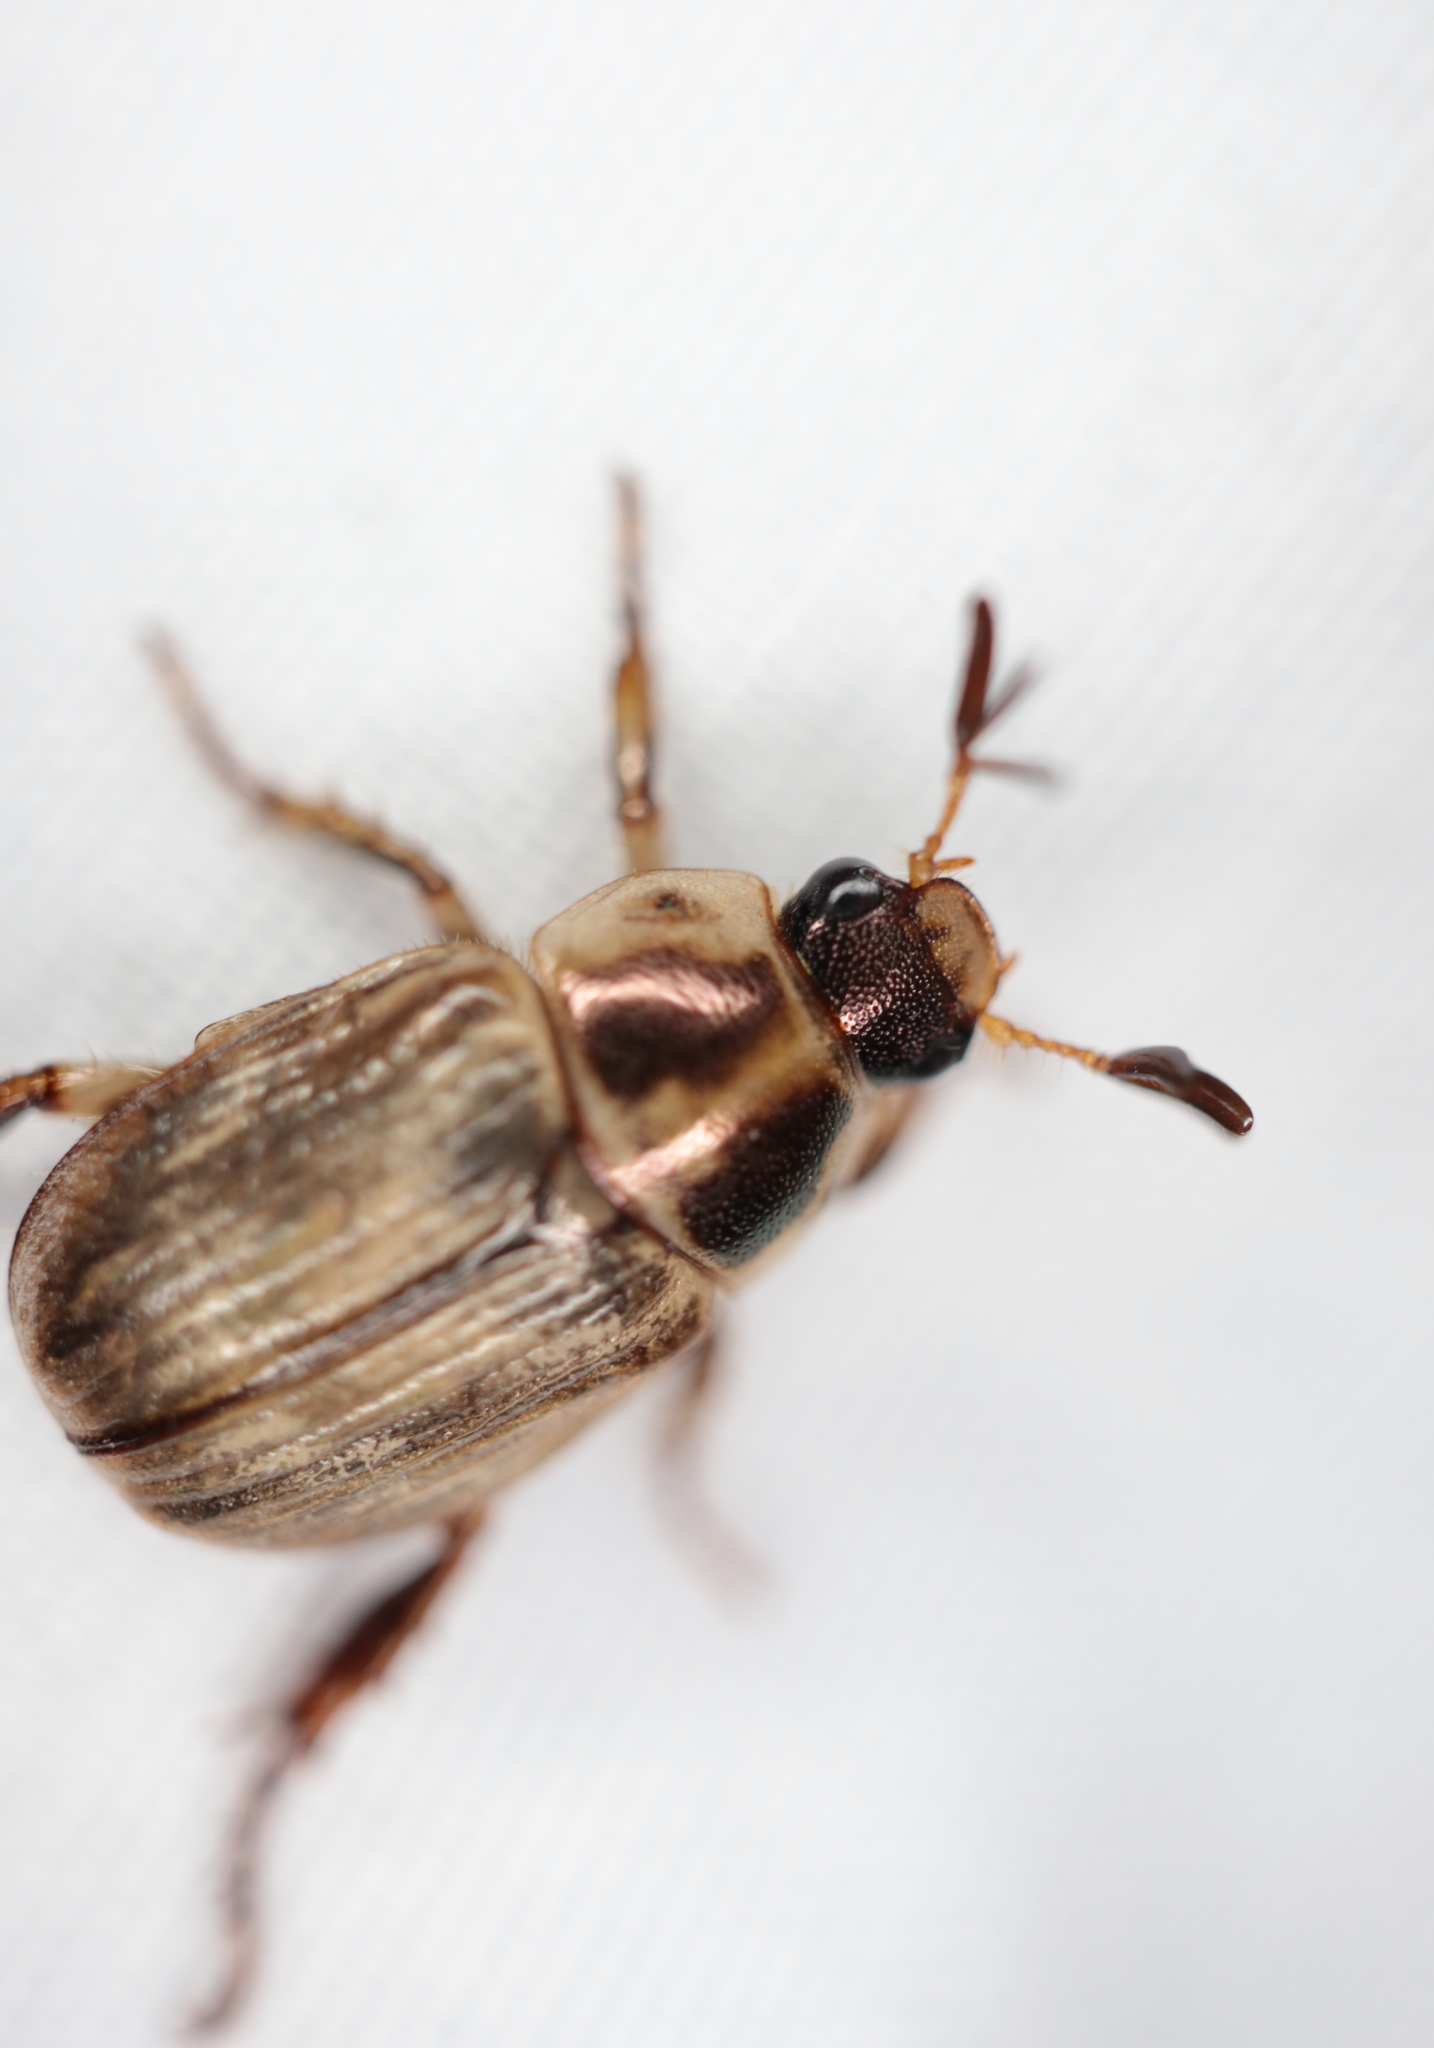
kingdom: Animalia
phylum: Arthropoda
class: Insecta
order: Coleoptera
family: Scarabaeidae
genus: Exomala
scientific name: Exomala orientalis
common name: Oriental beetle
